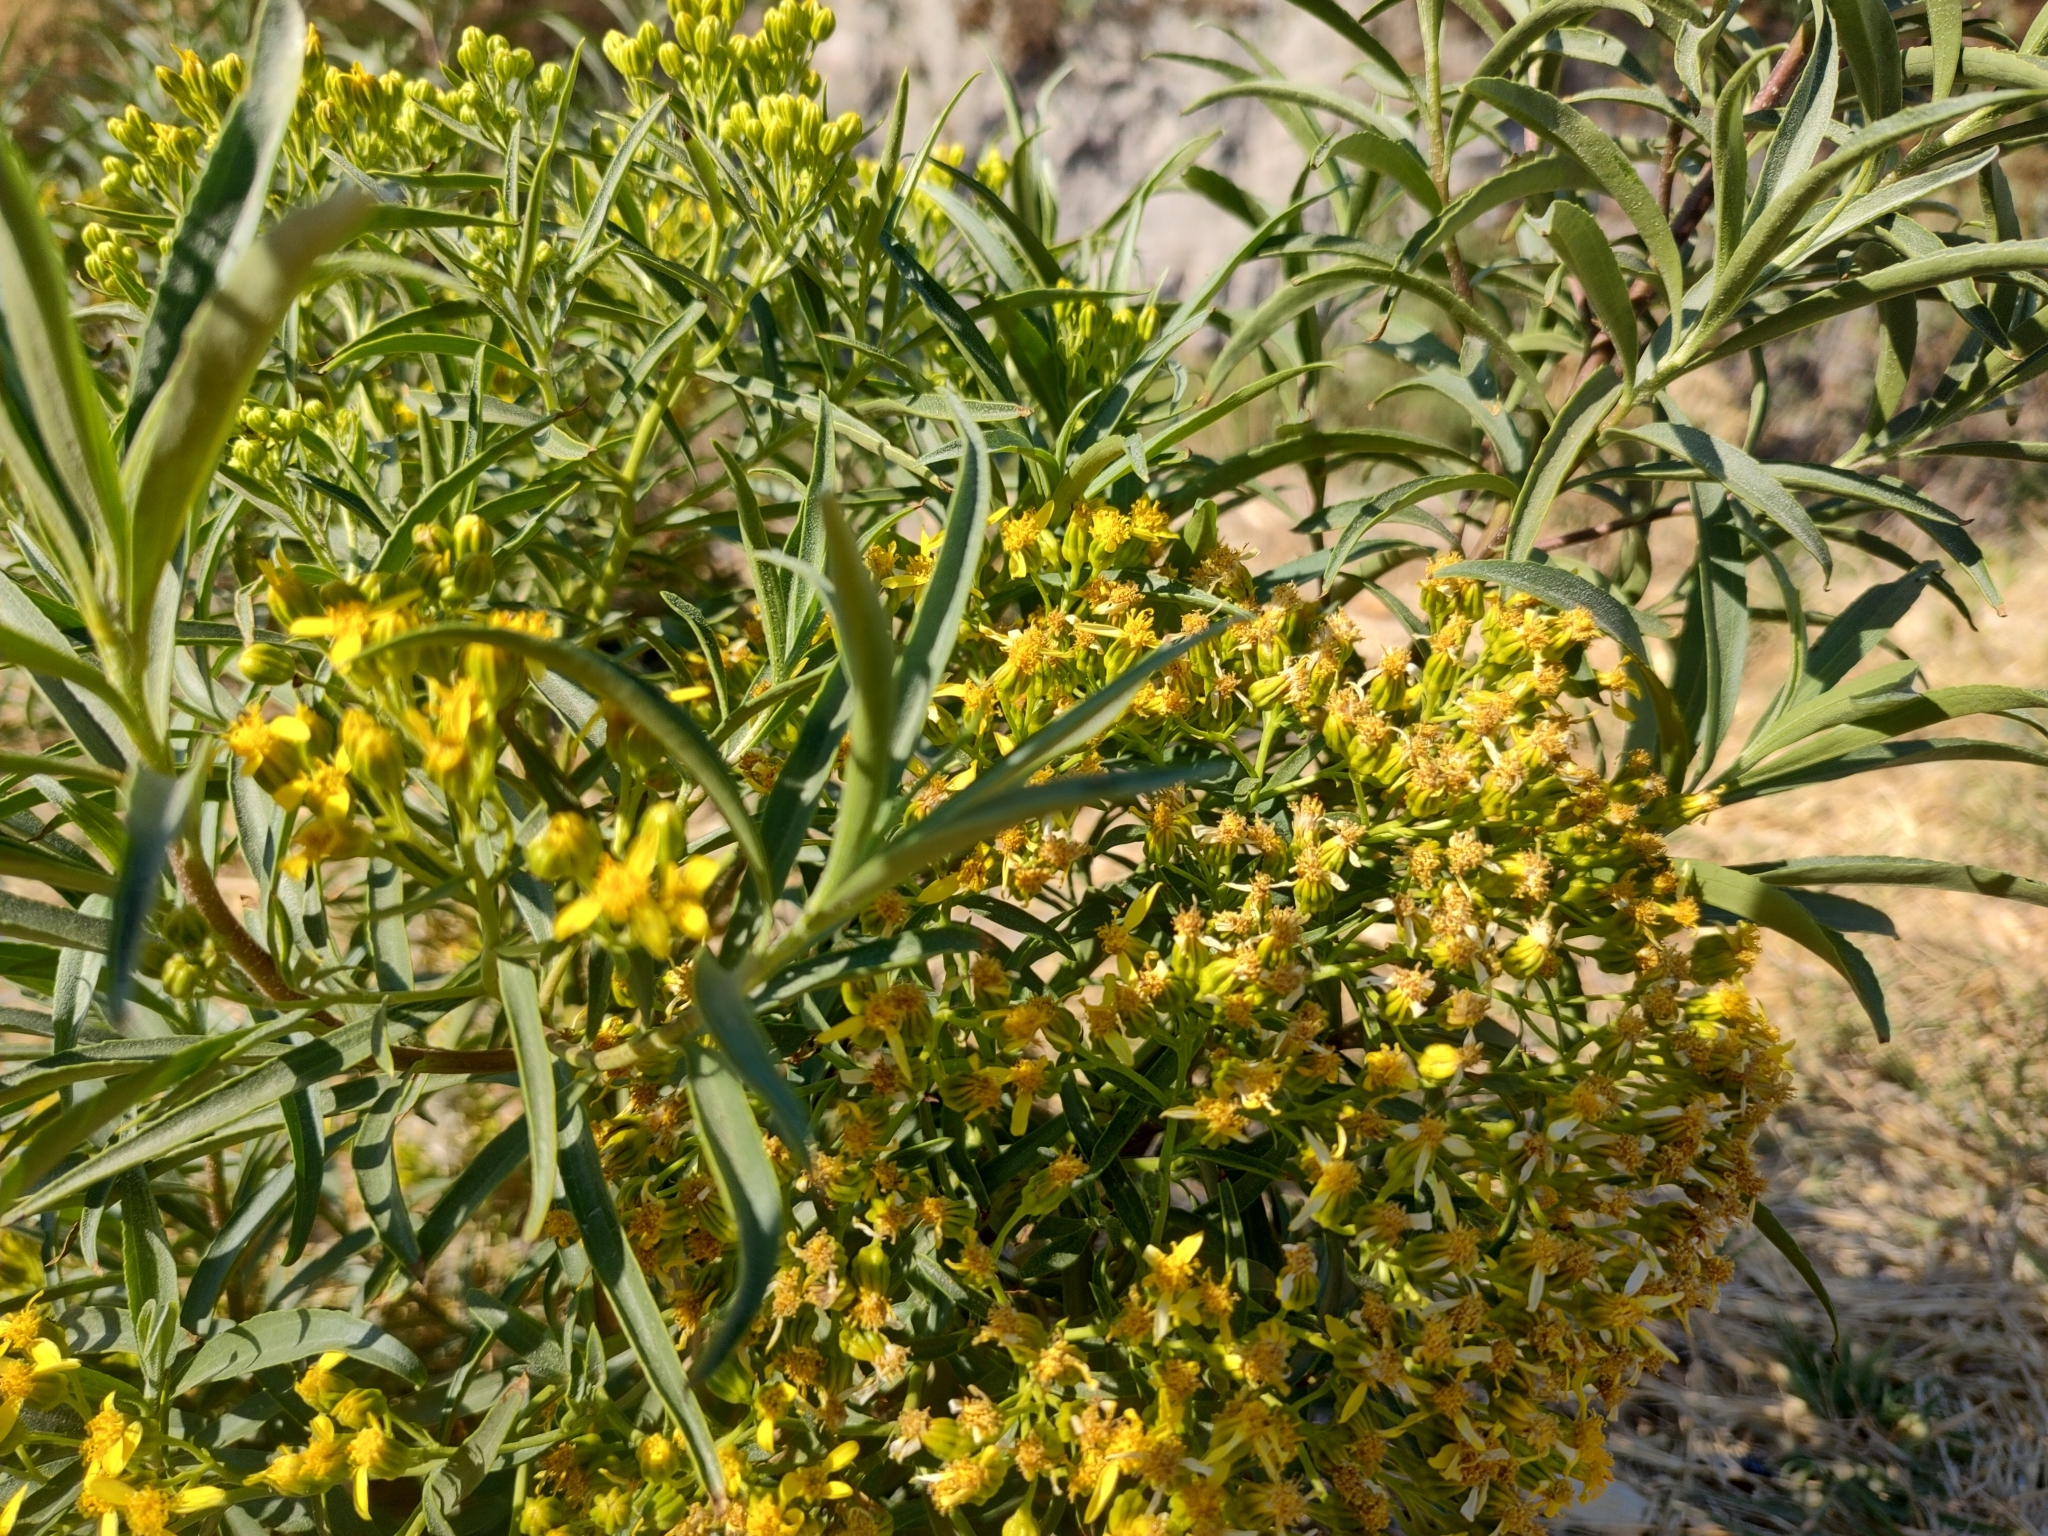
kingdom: Plantae
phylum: Tracheophyta
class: Magnoliopsida
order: Asterales
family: Asteraceae
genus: Barkleyanthus
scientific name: Barkleyanthus salicifolius
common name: Willow ragwort
